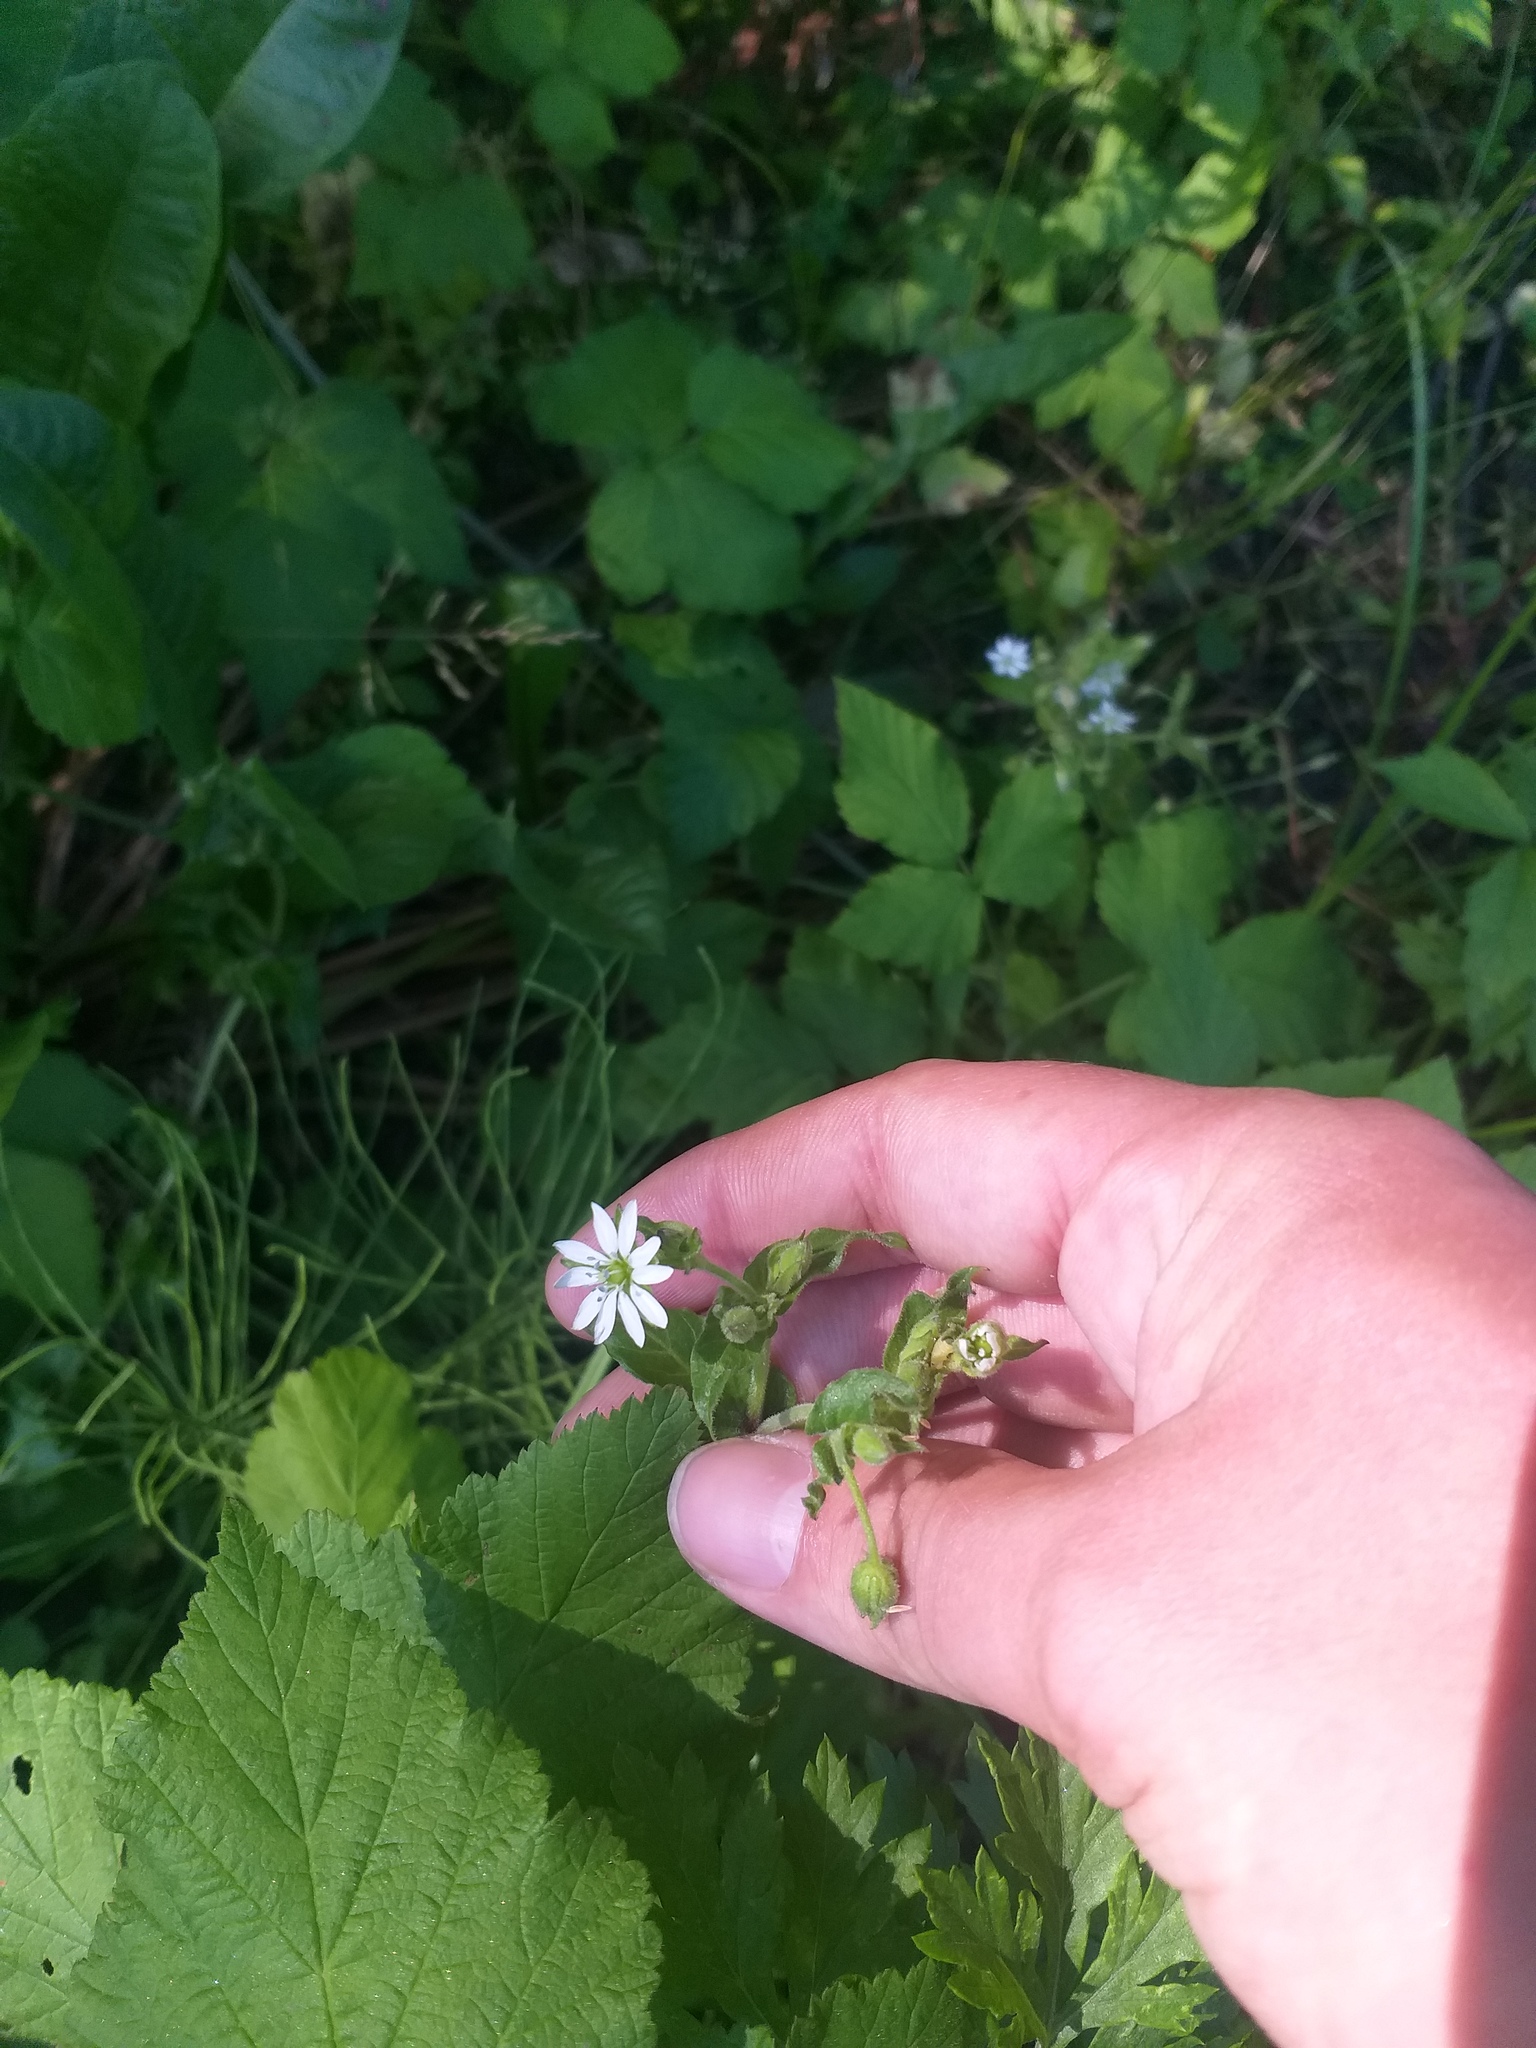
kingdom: Plantae
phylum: Tracheophyta
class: Magnoliopsida
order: Caryophyllales
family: Caryophyllaceae
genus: Stellaria
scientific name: Stellaria aquatica
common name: Water chickweed
